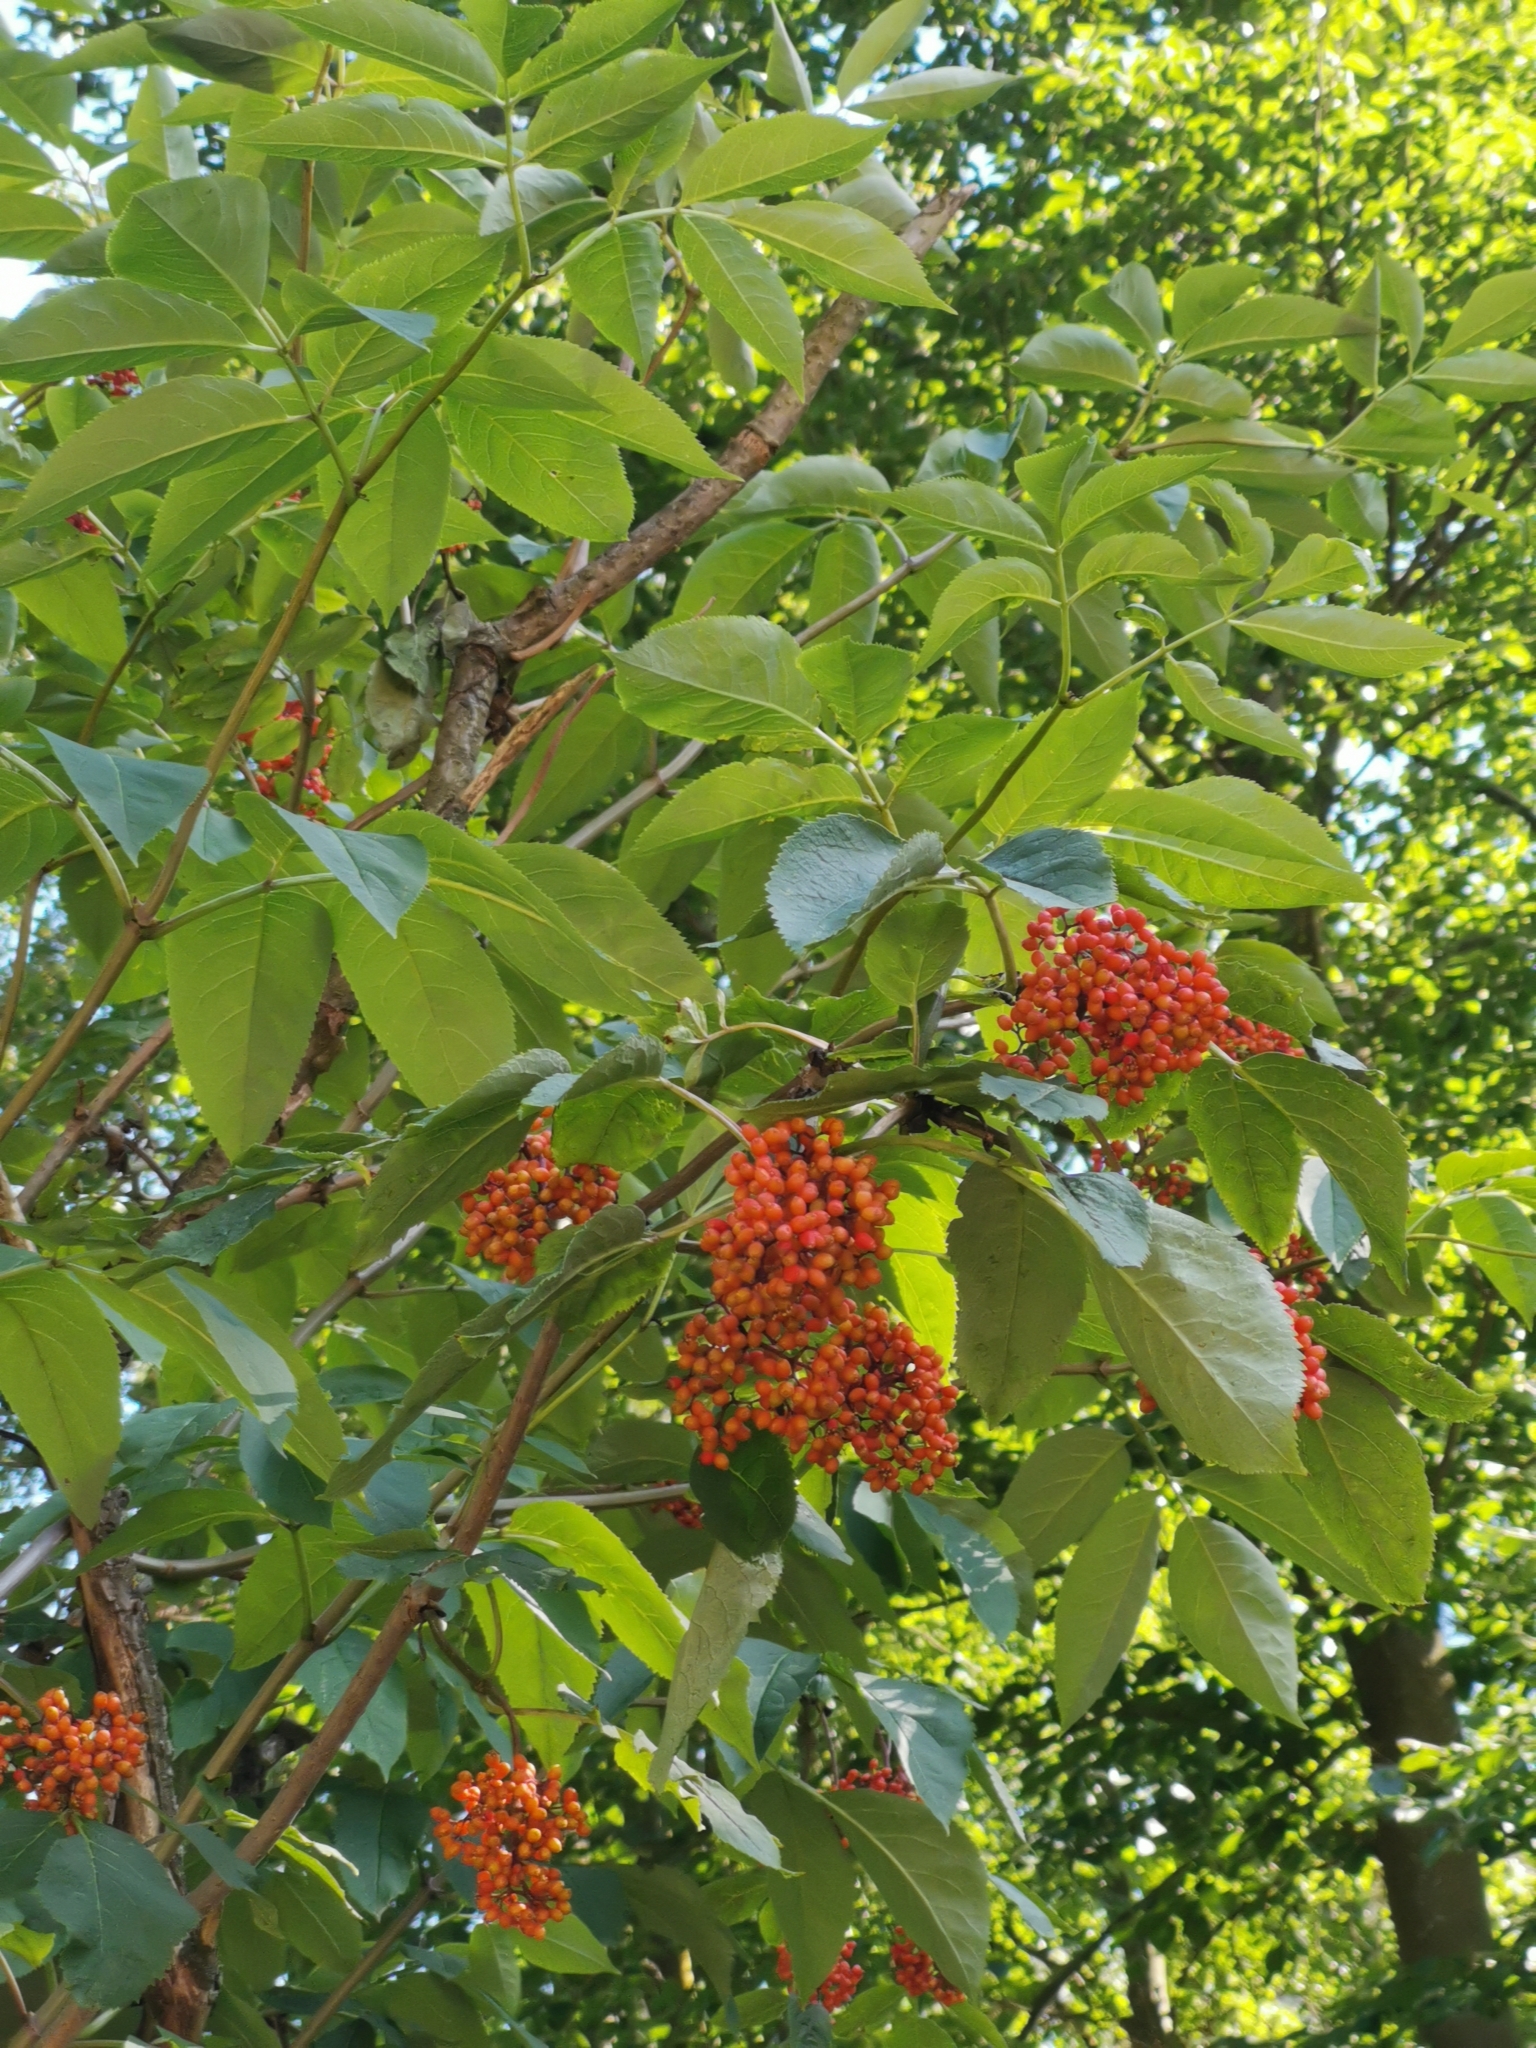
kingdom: Plantae
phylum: Tracheophyta
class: Magnoliopsida
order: Dipsacales
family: Viburnaceae
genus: Sambucus
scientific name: Sambucus racemosa
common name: Red-berried elder
